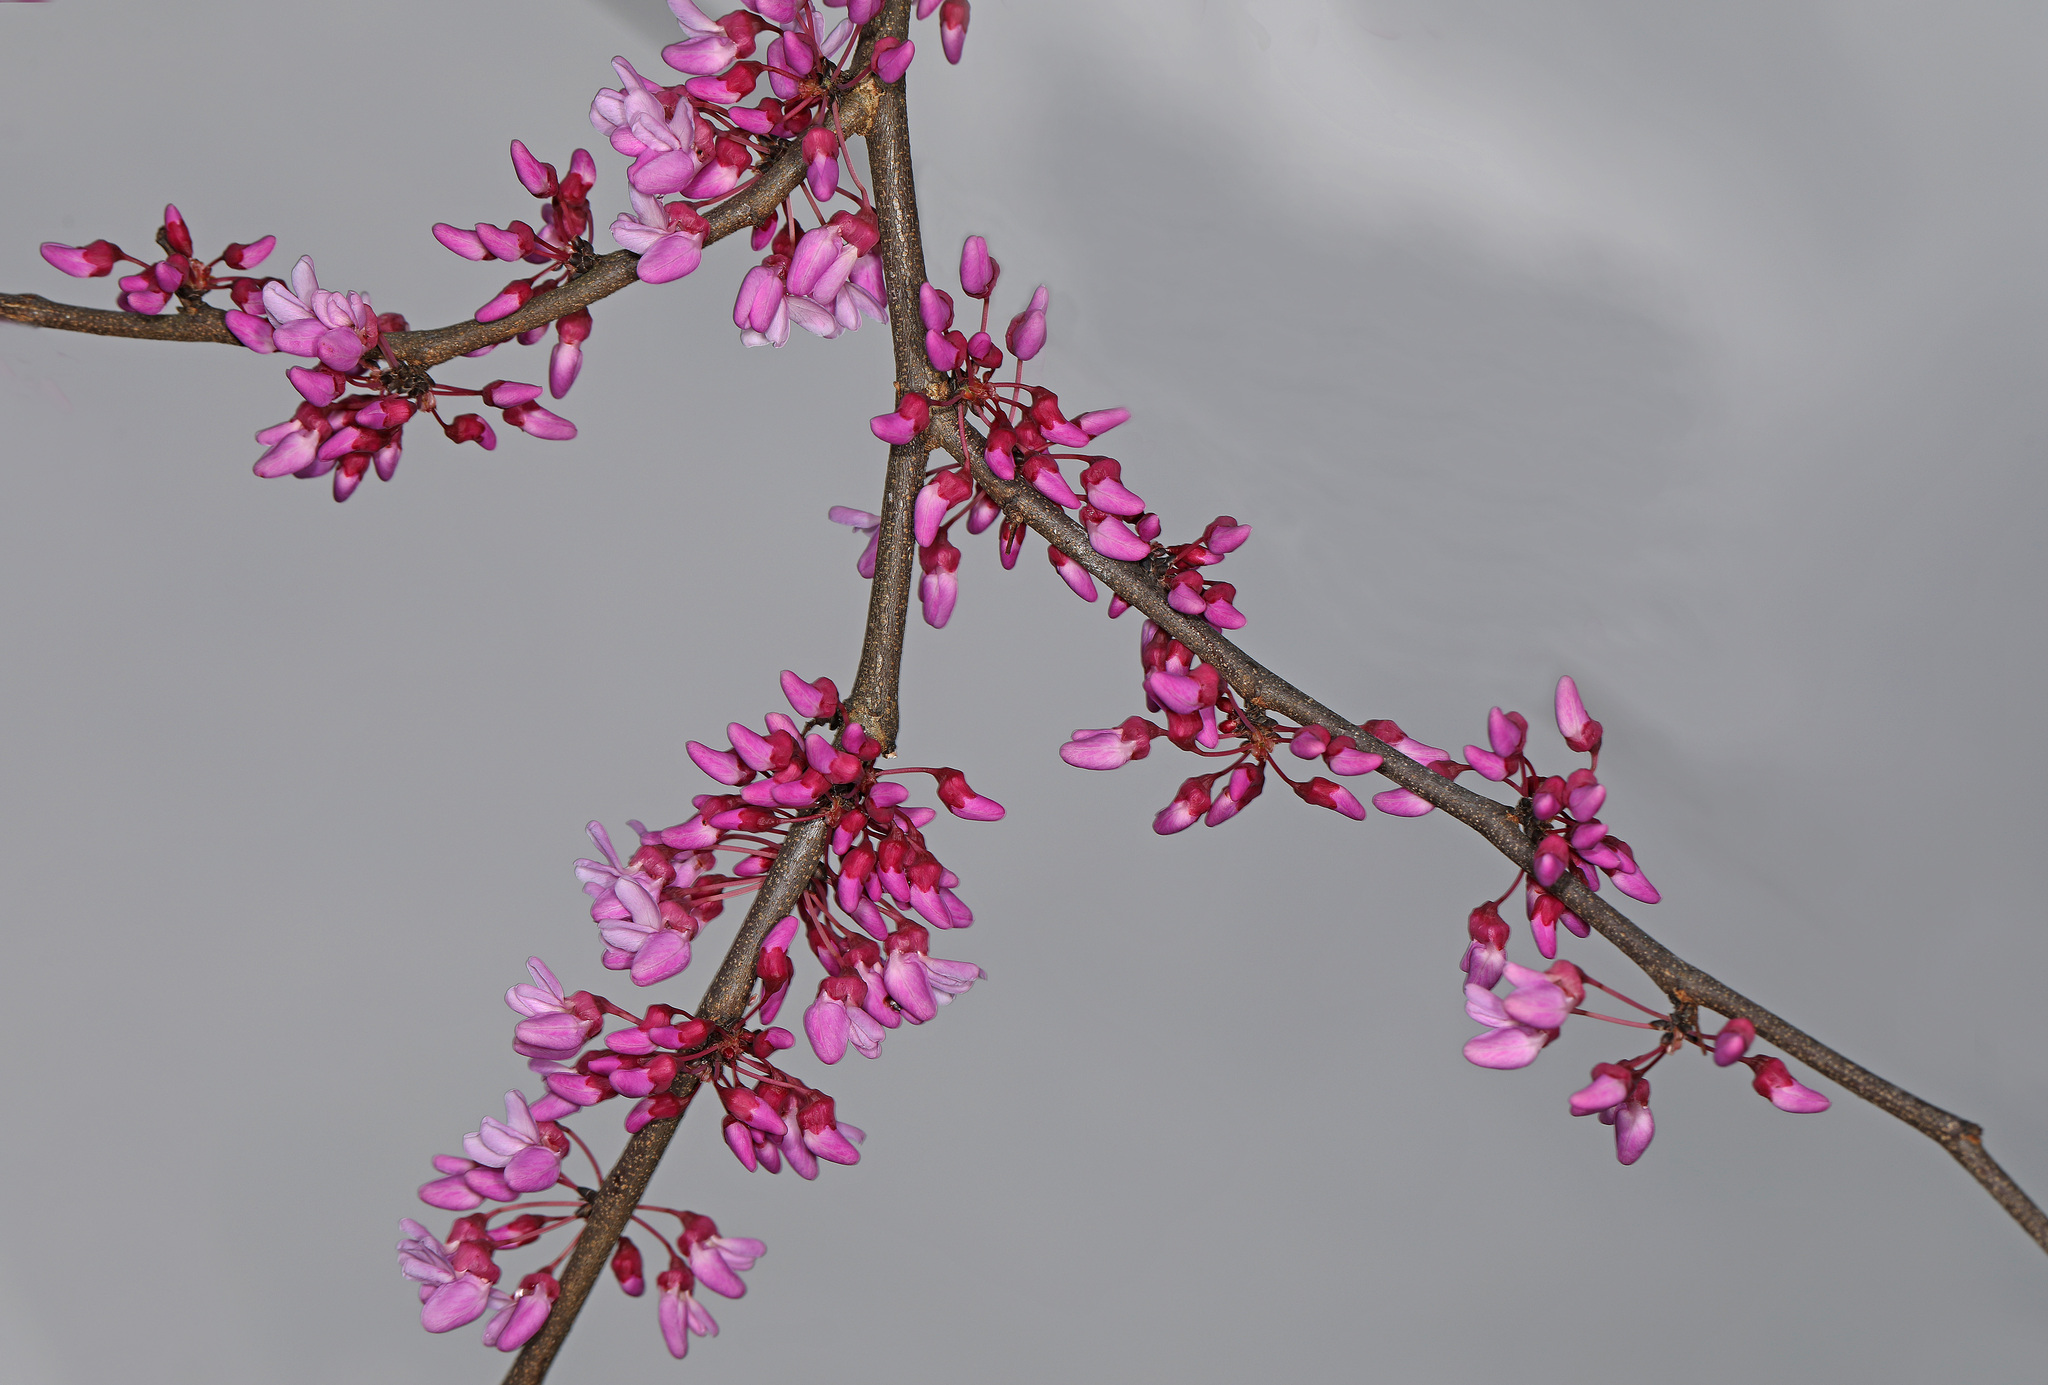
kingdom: Plantae
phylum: Tracheophyta
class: Magnoliopsida
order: Fabales
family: Fabaceae
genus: Cercis
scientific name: Cercis canadensis
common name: Eastern redbud
